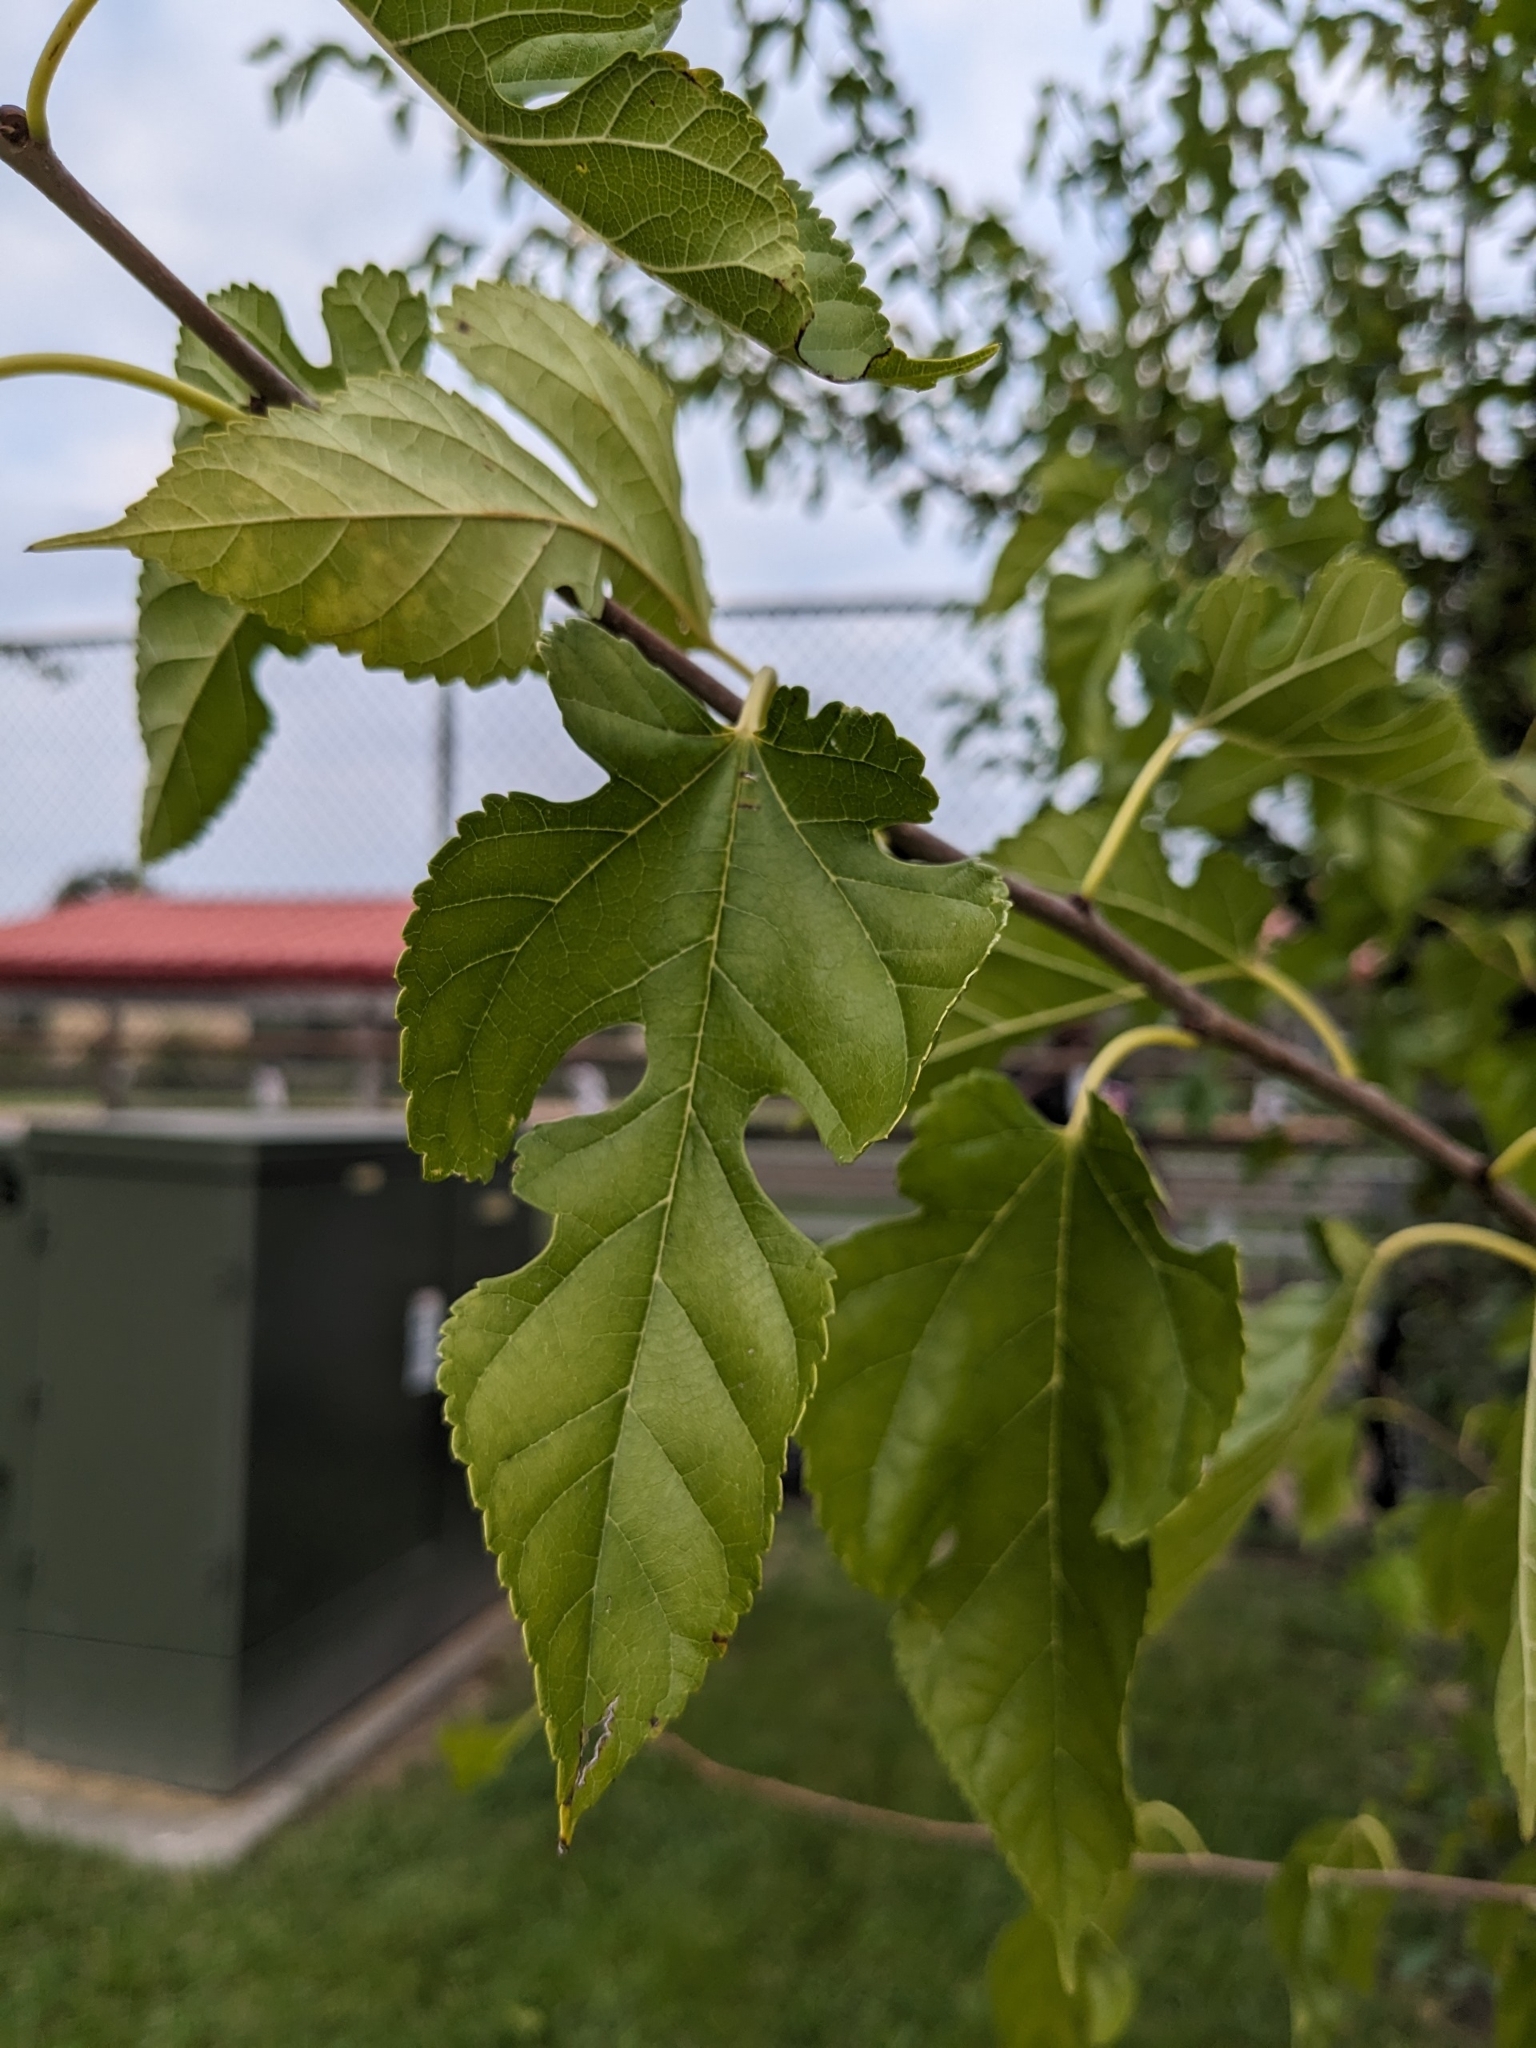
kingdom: Plantae
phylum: Tracheophyta
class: Magnoliopsida
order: Rosales
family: Moraceae
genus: Morus
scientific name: Morus alba
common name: White mulberry
